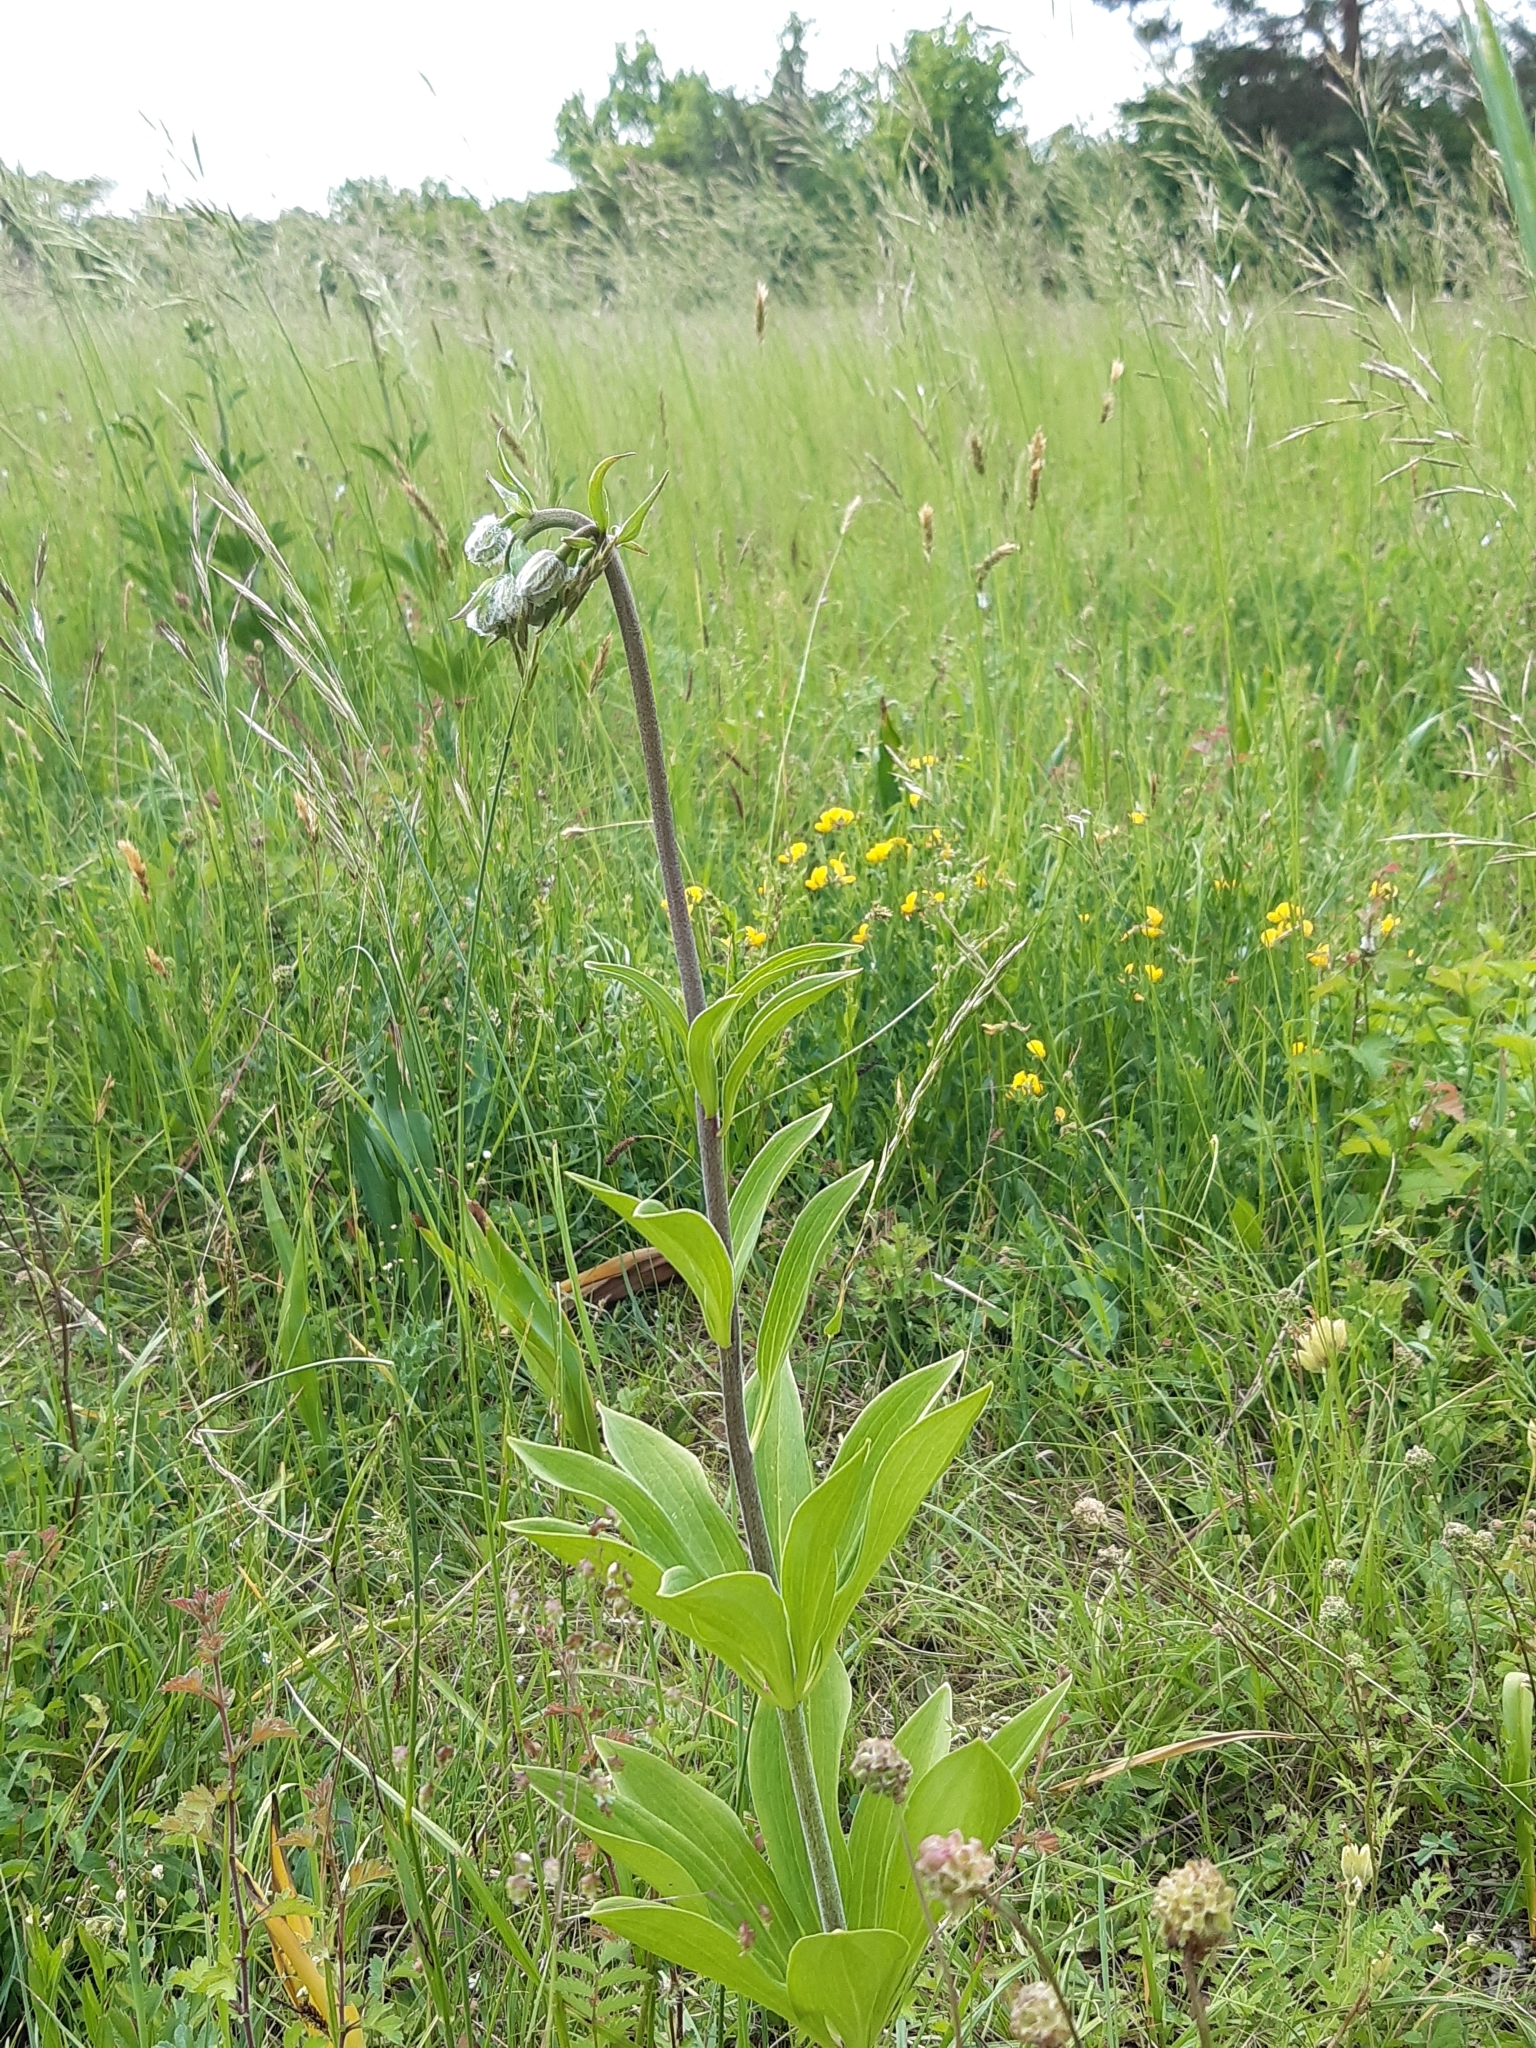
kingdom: Plantae
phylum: Tracheophyta
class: Liliopsida
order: Liliales
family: Liliaceae
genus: Lilium
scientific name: Lilium martagon
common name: Martagon lily
